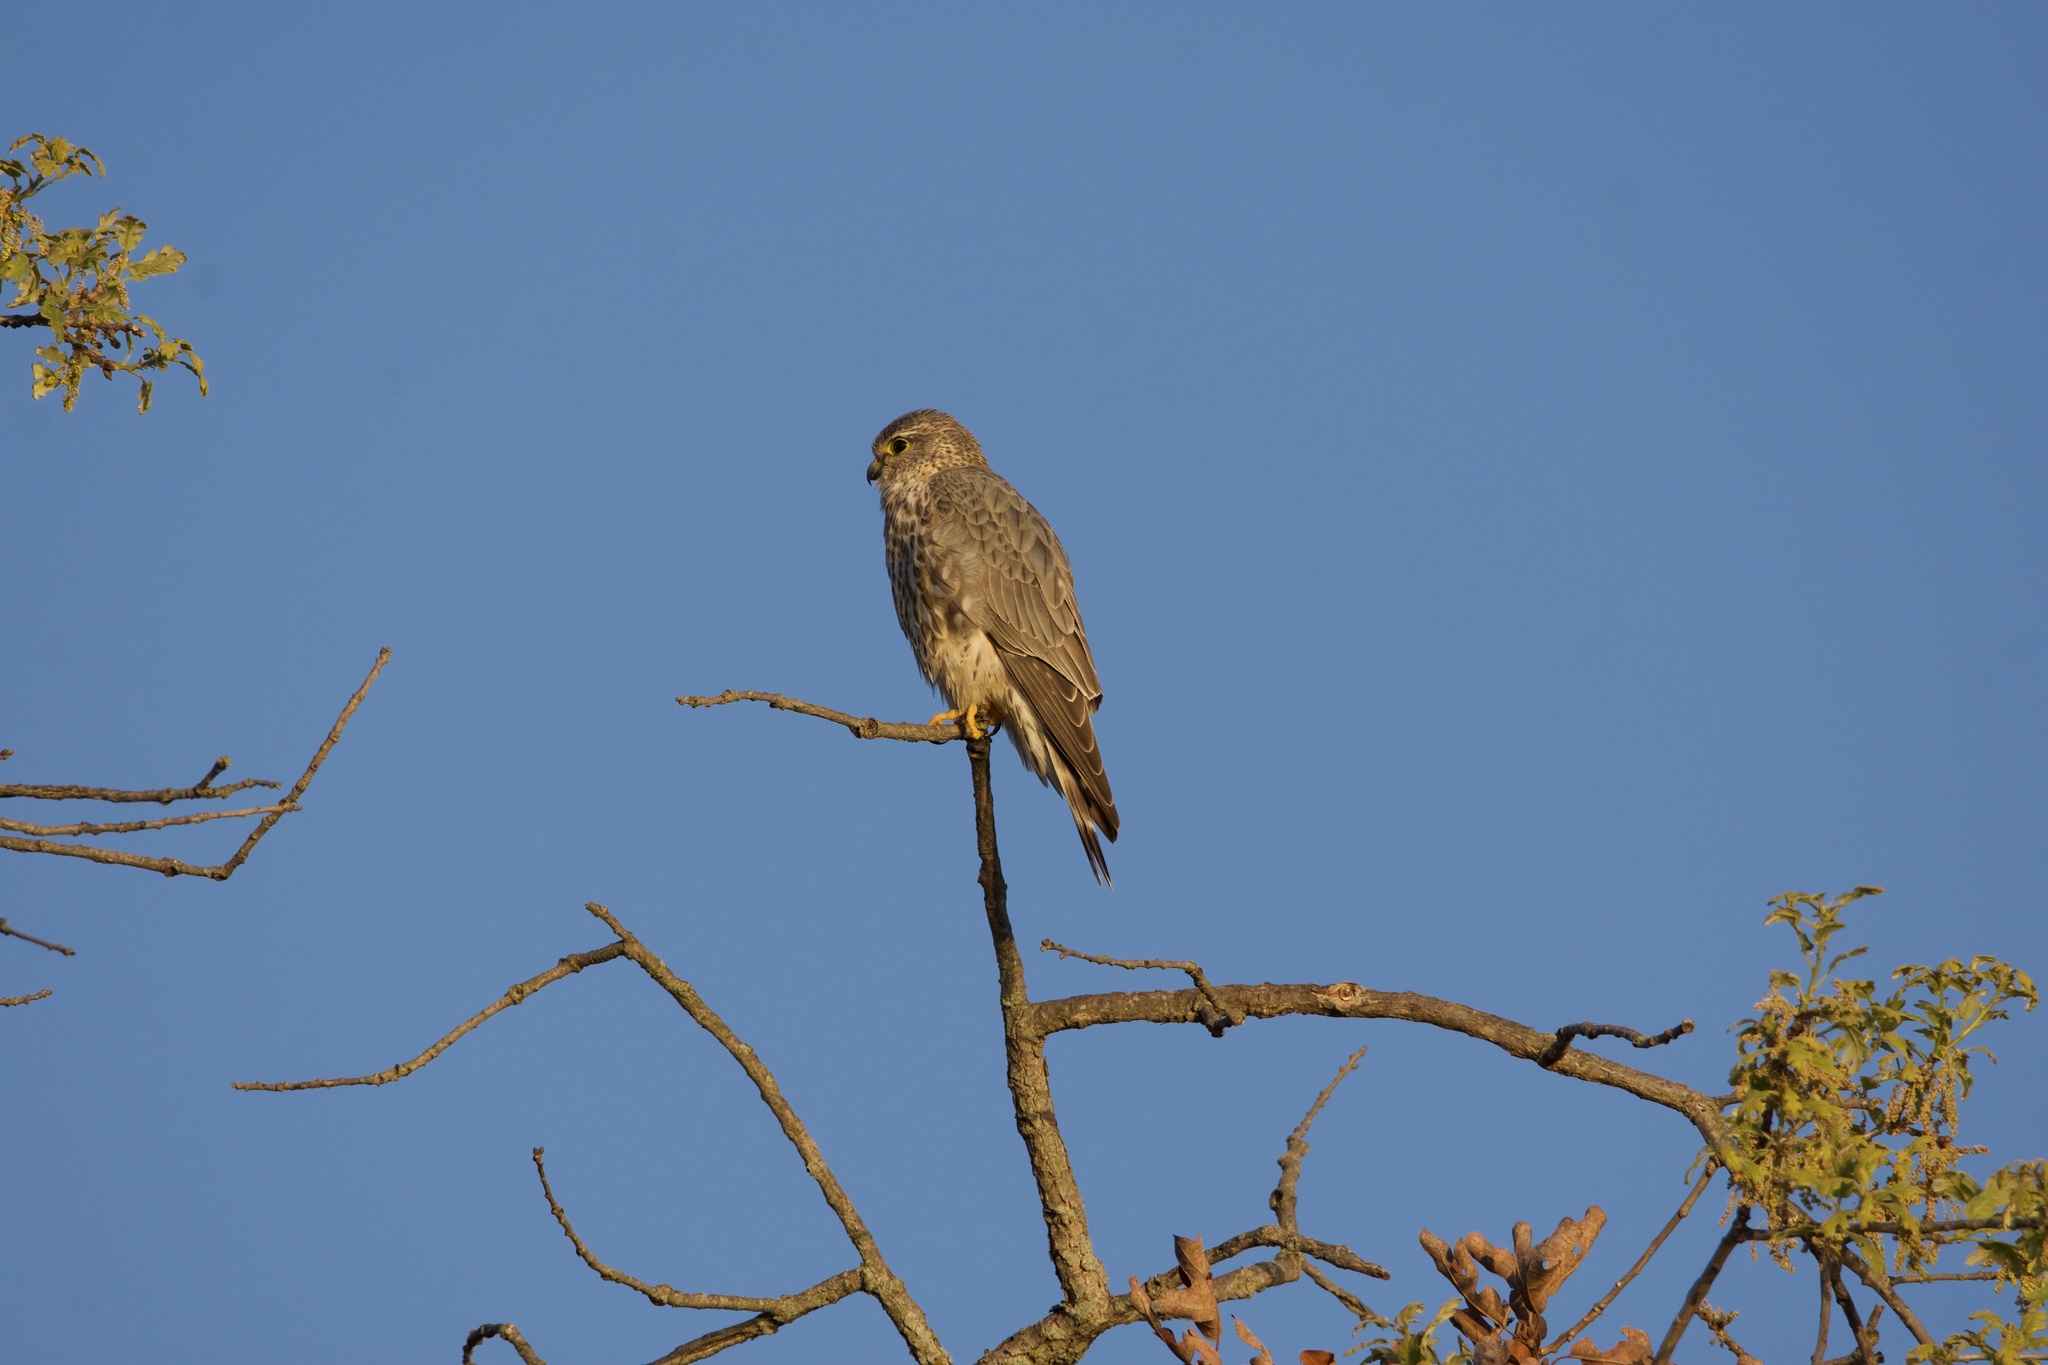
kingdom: Animalia
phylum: Chordata
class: Aves
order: Falconiformes
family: Falconidae
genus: Falco
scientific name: Falco columbarius
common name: Merlin
